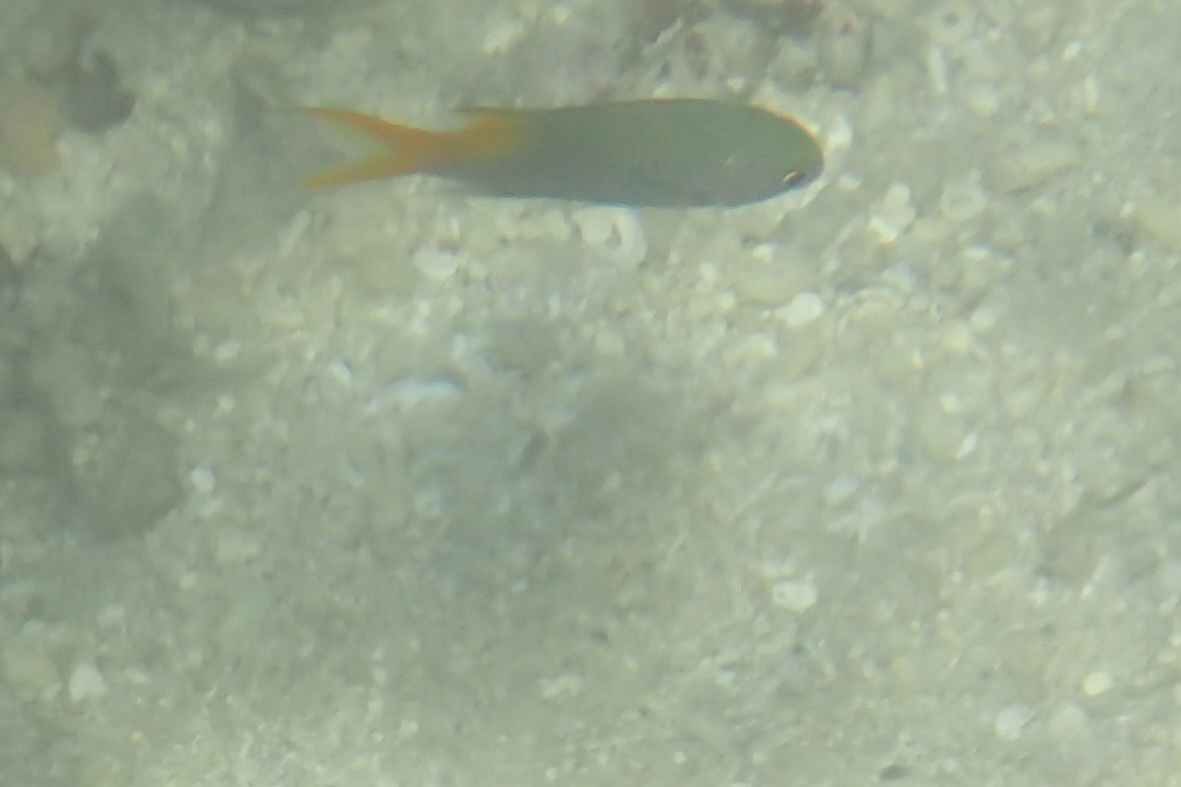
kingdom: Animalia
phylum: Chordata
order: Perciformes
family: Pomacentridae
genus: Neopomacentrus
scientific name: Neopomacentrus azysron
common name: Yellow-tail damsel
